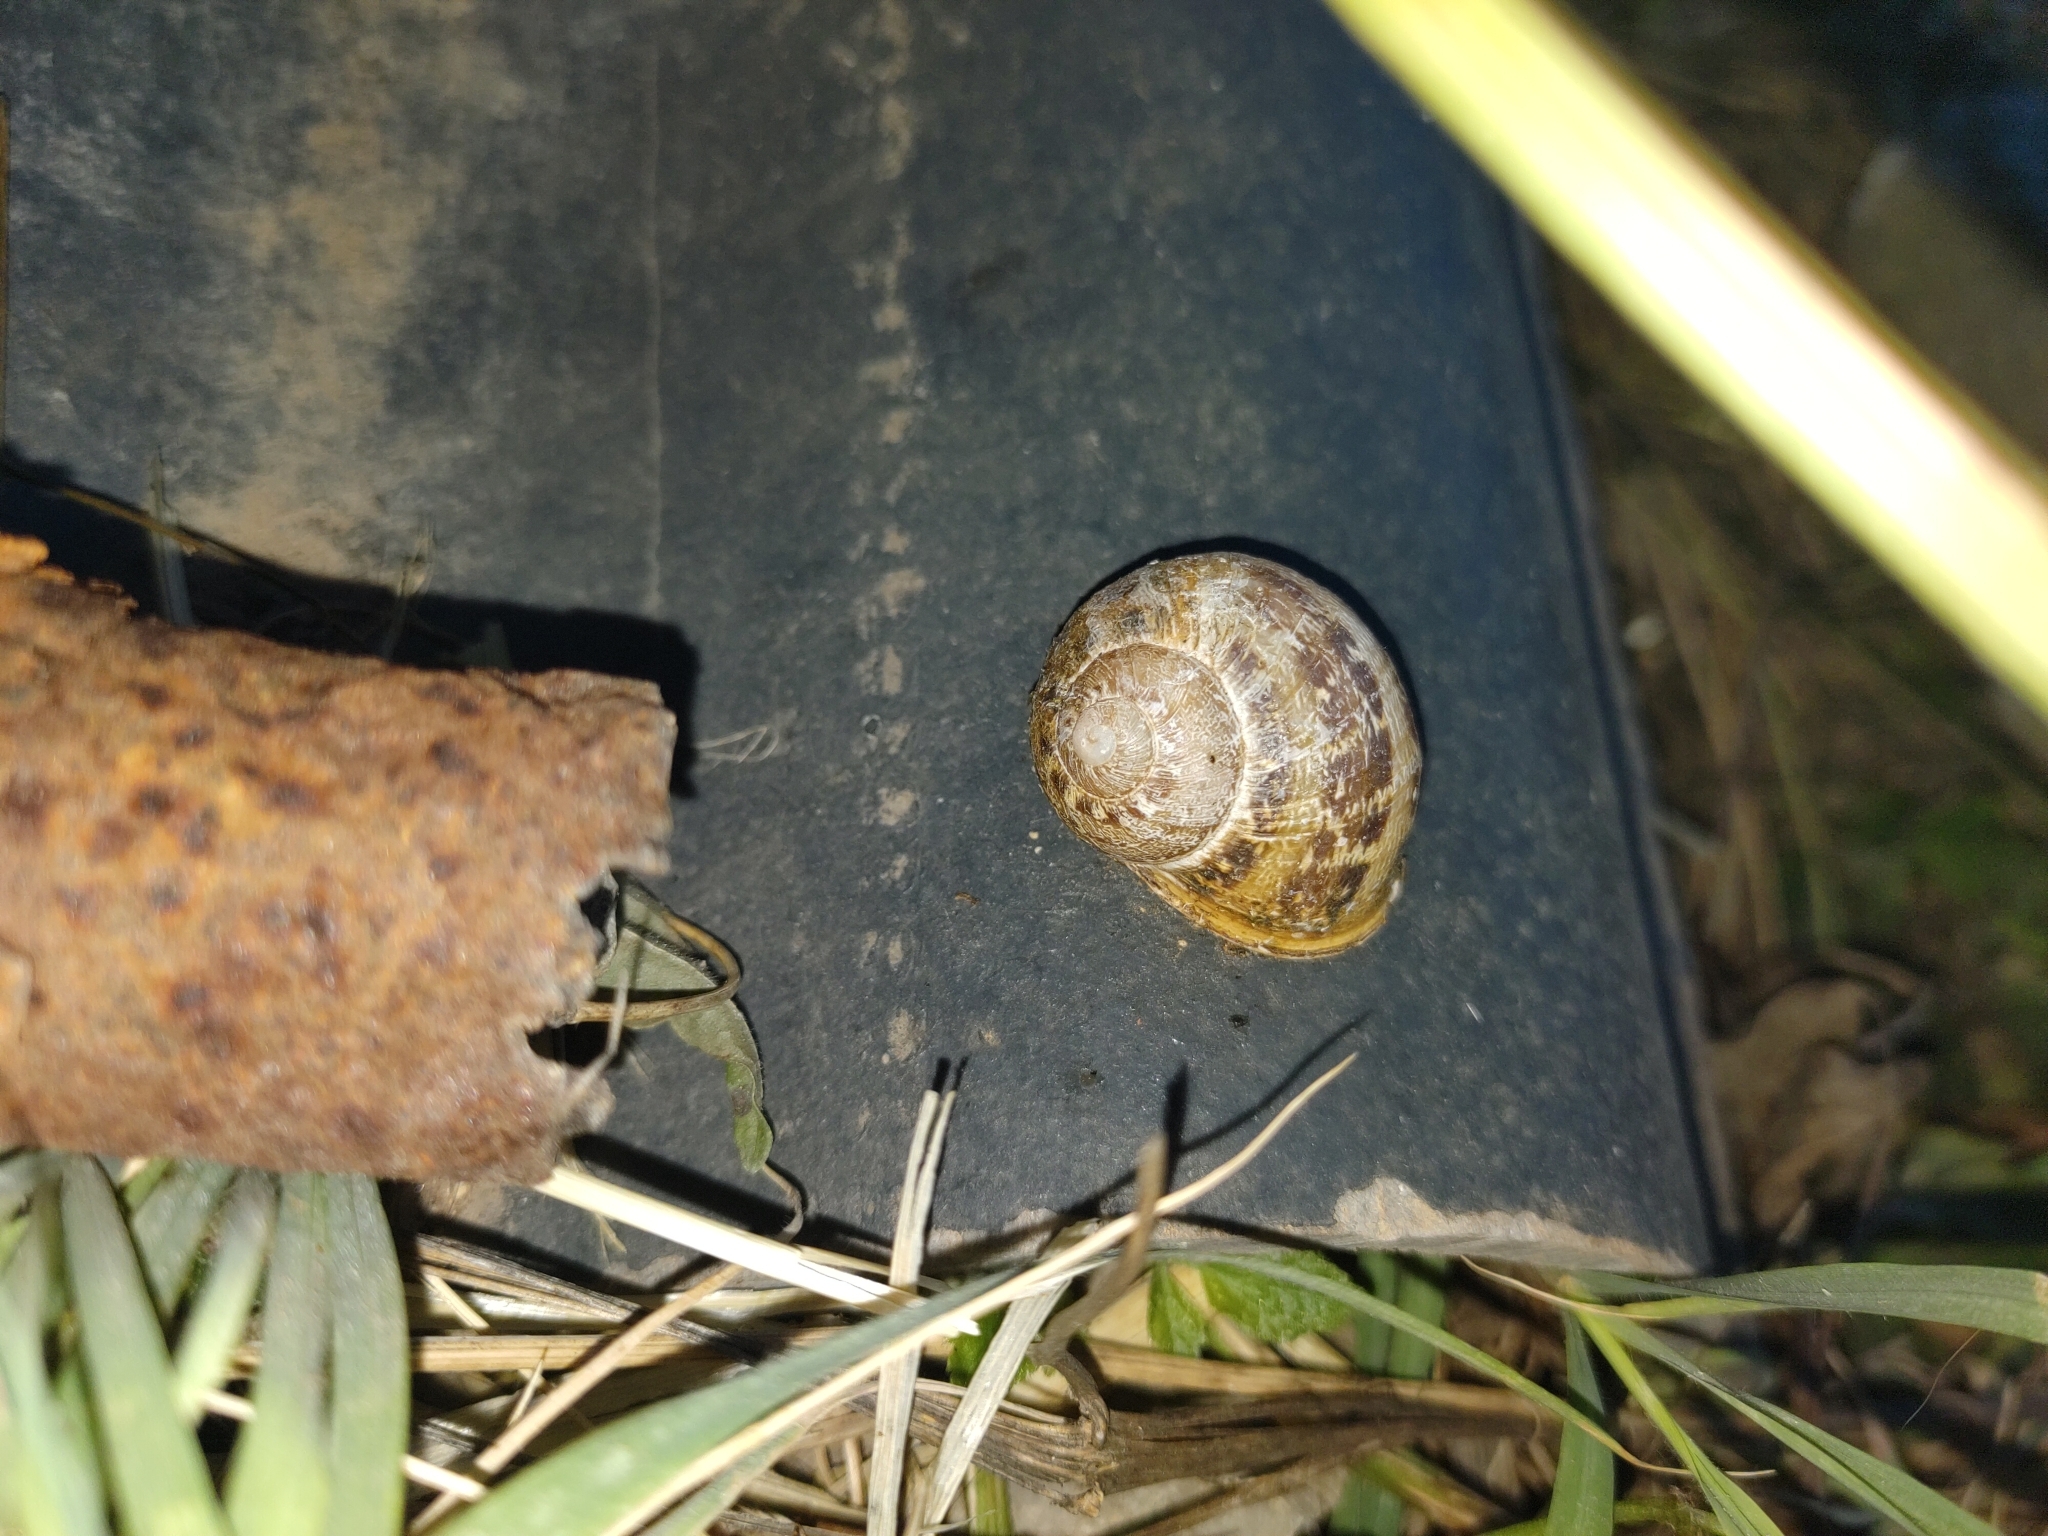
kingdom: Animalia
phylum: Mollusca
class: Gastropoda
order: Stylommatophora
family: Helicidae
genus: Cornu
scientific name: Cornu aspersum
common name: Brown garden snail
